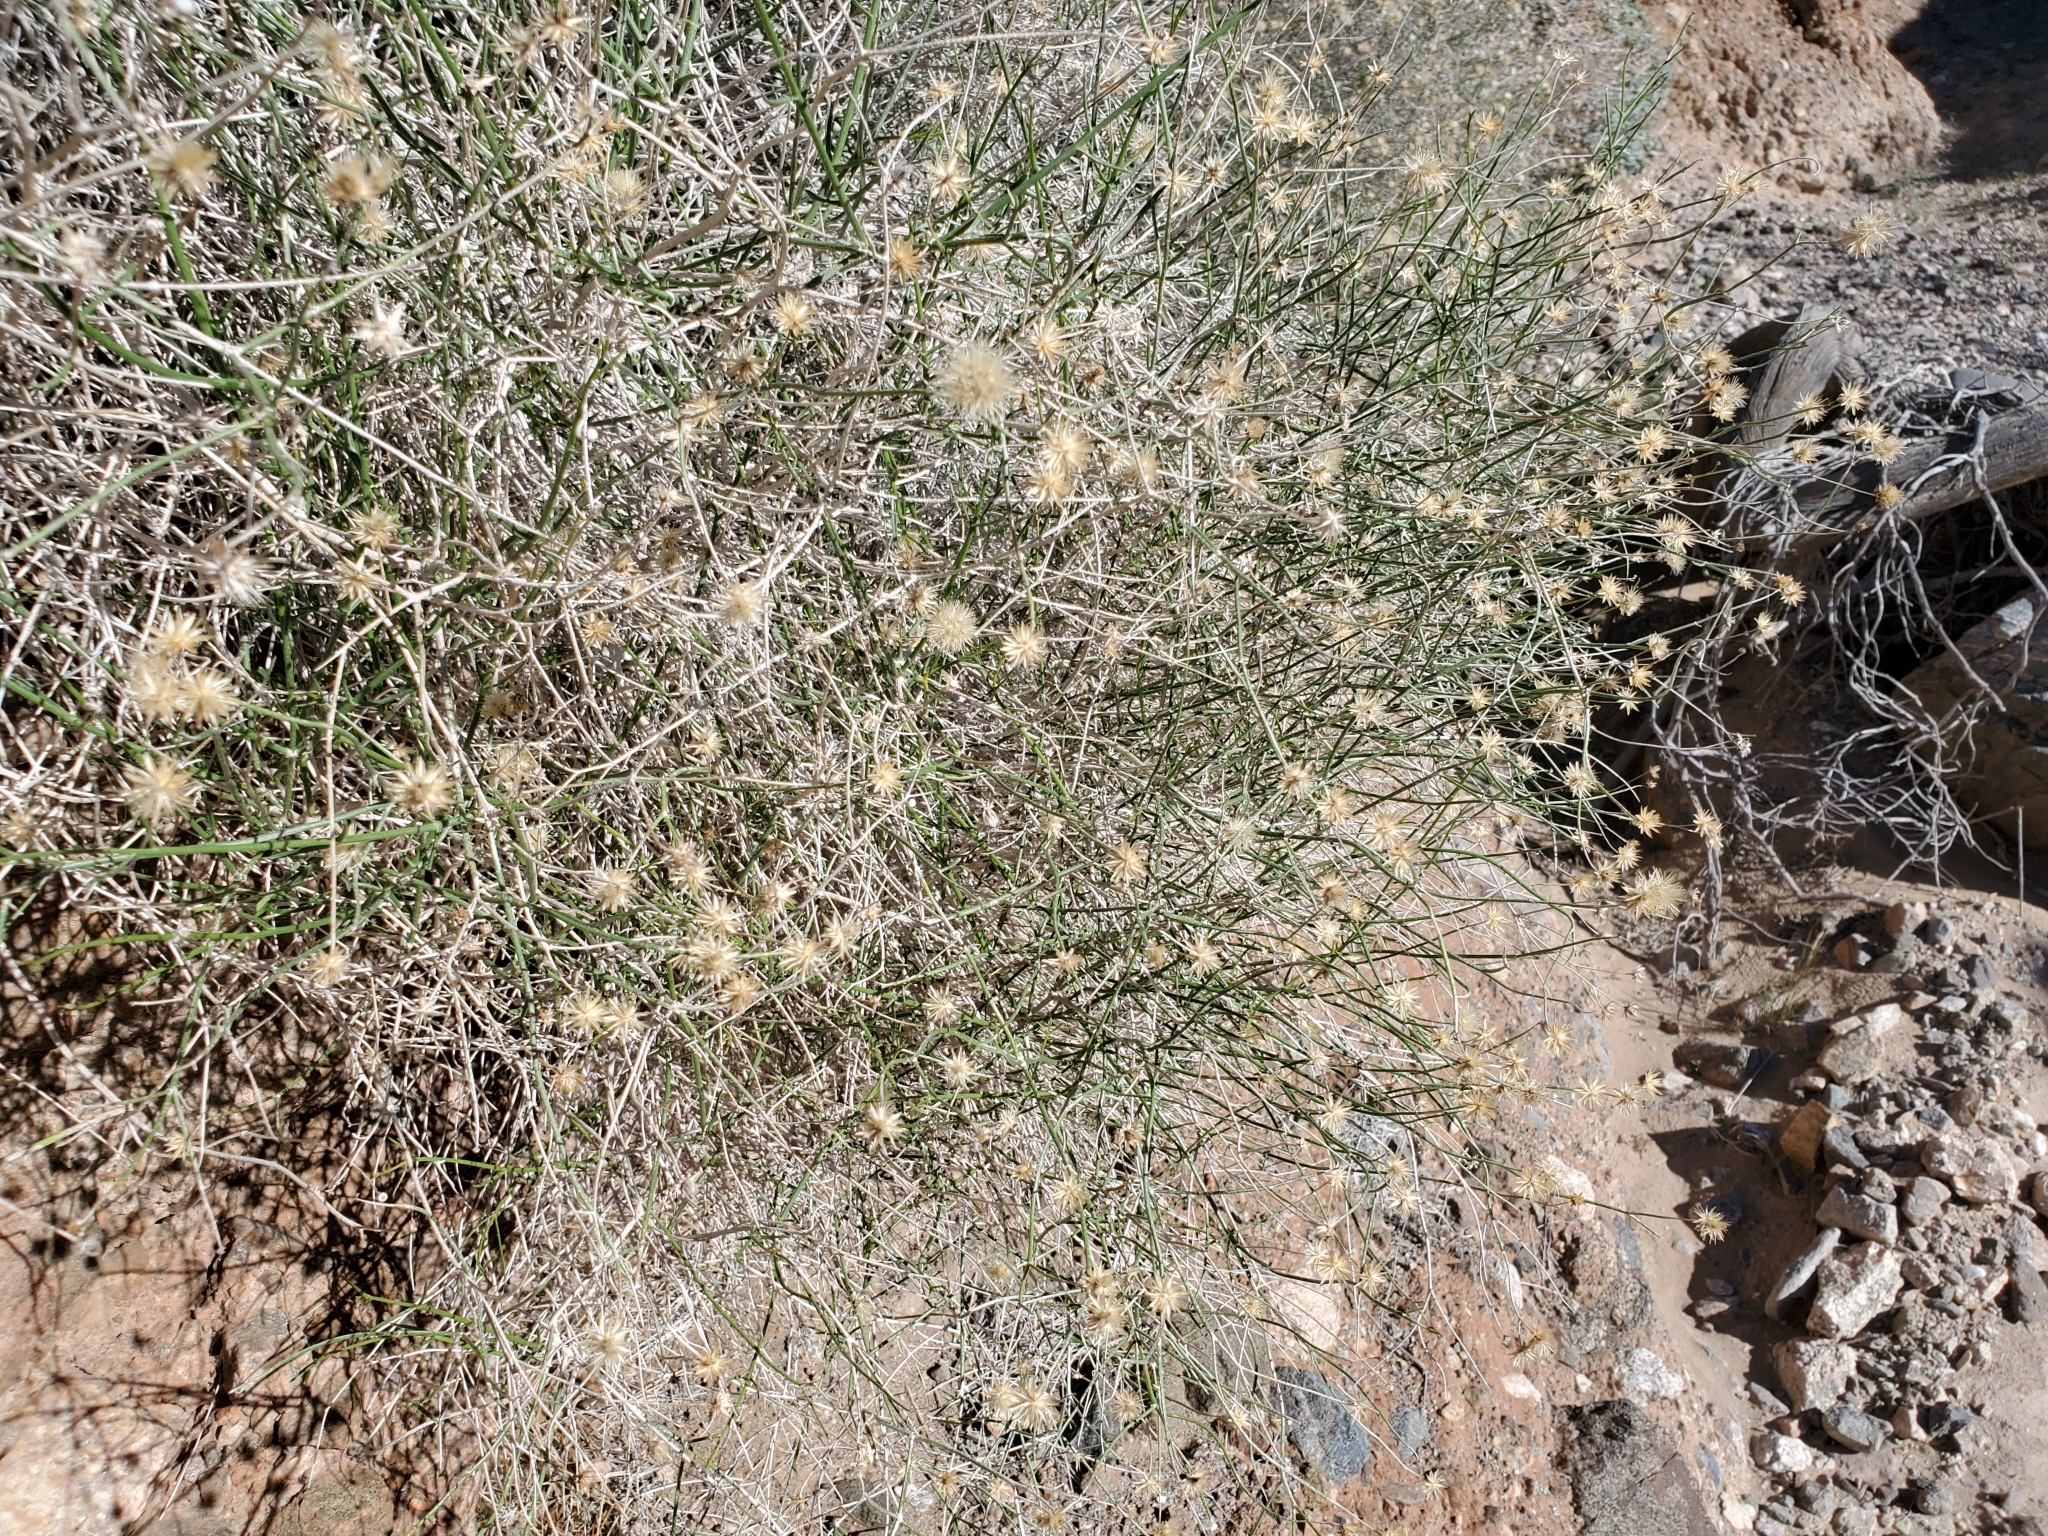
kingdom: Plantae
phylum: Tracheophyta
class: Magnoliopsida
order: Asterales
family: Asteraceae
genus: Bebbia
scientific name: Bebbia juncea
